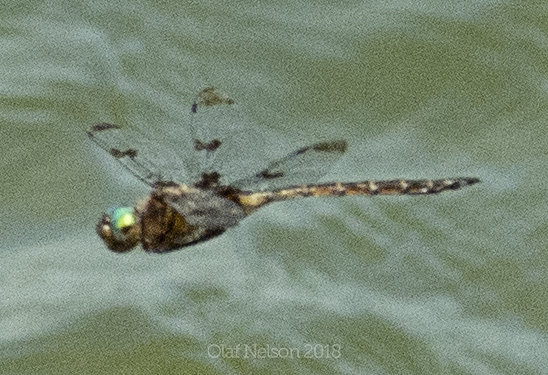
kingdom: Animalia
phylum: Arthropoda
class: Insecta
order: Odonata
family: Corduliidae
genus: Epitheca
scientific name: Epitheca princeps
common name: Prince baskettail
